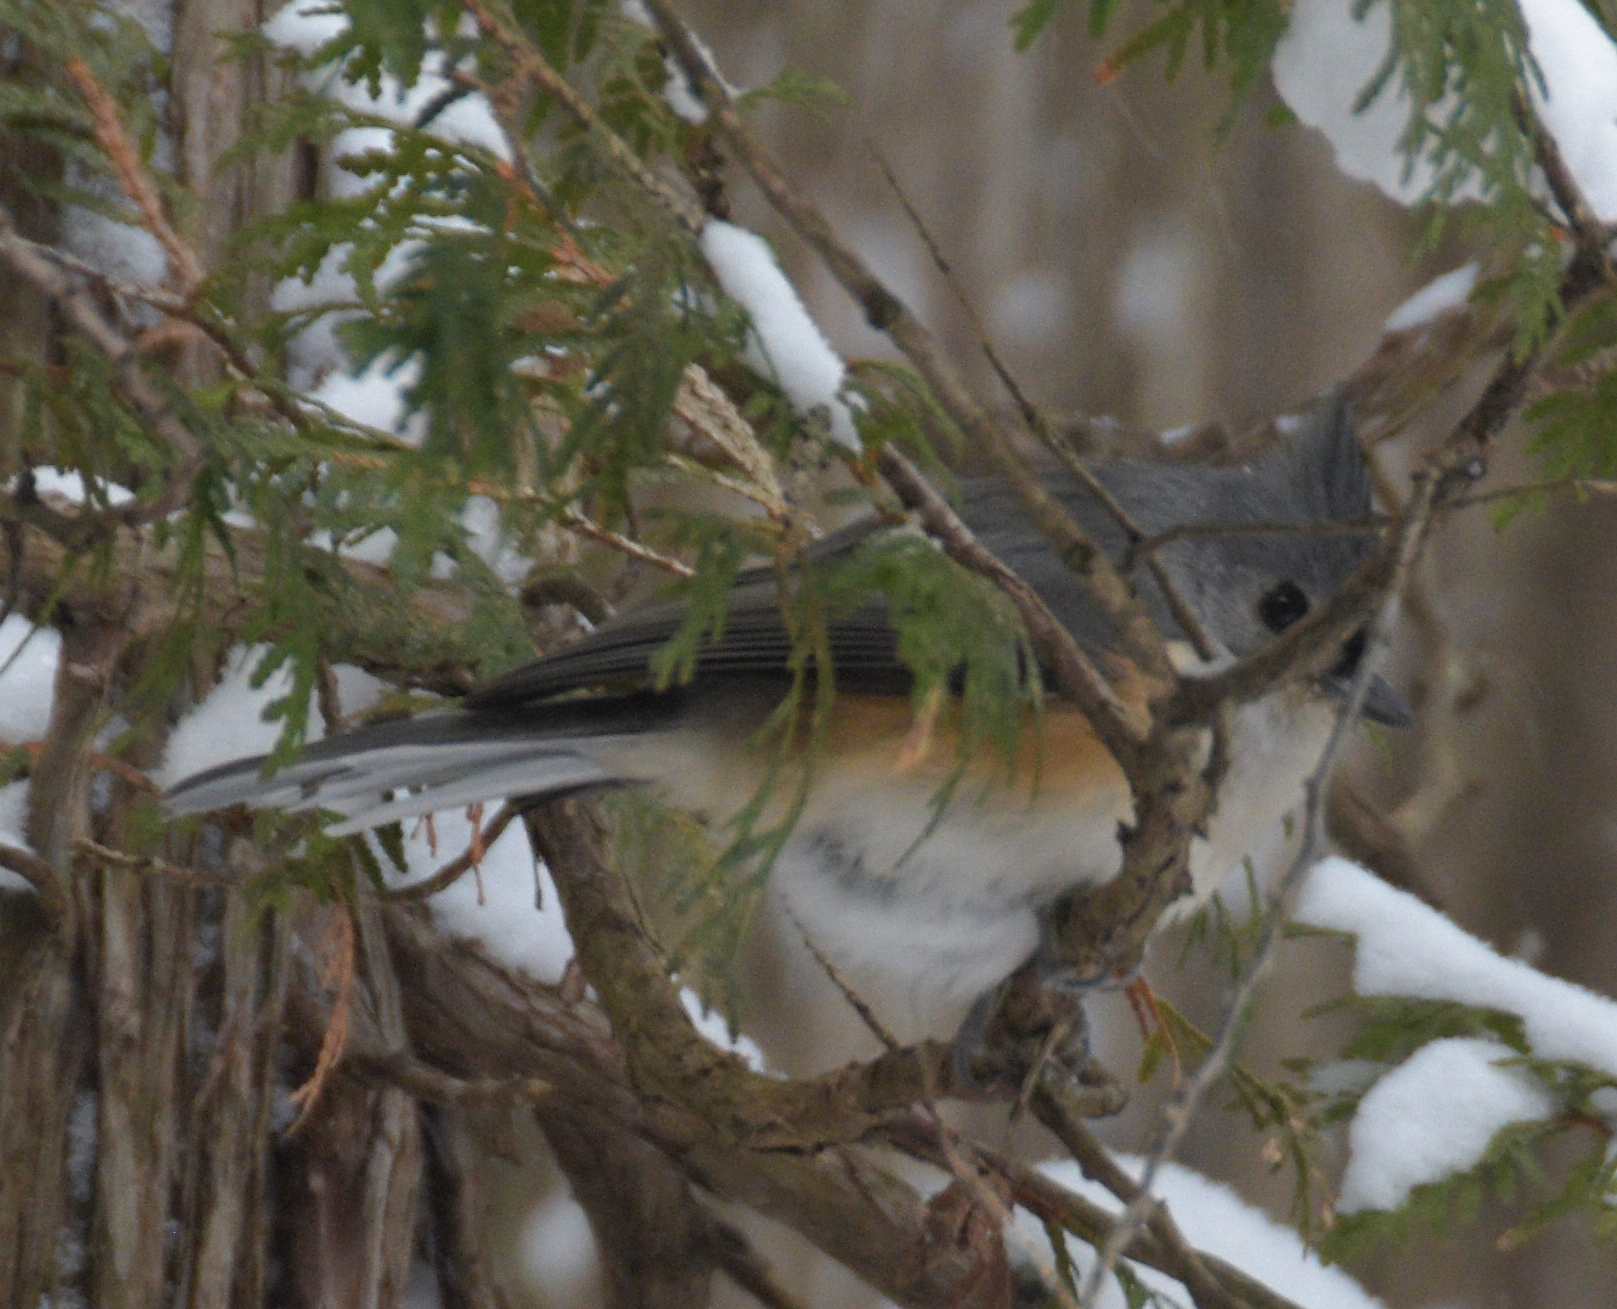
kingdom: Animalia
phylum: Chordata
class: Aves
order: Passeriformes
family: Paridae
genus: Baeolophus
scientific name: Baeolophus bicolor
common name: Tufted titmouse
